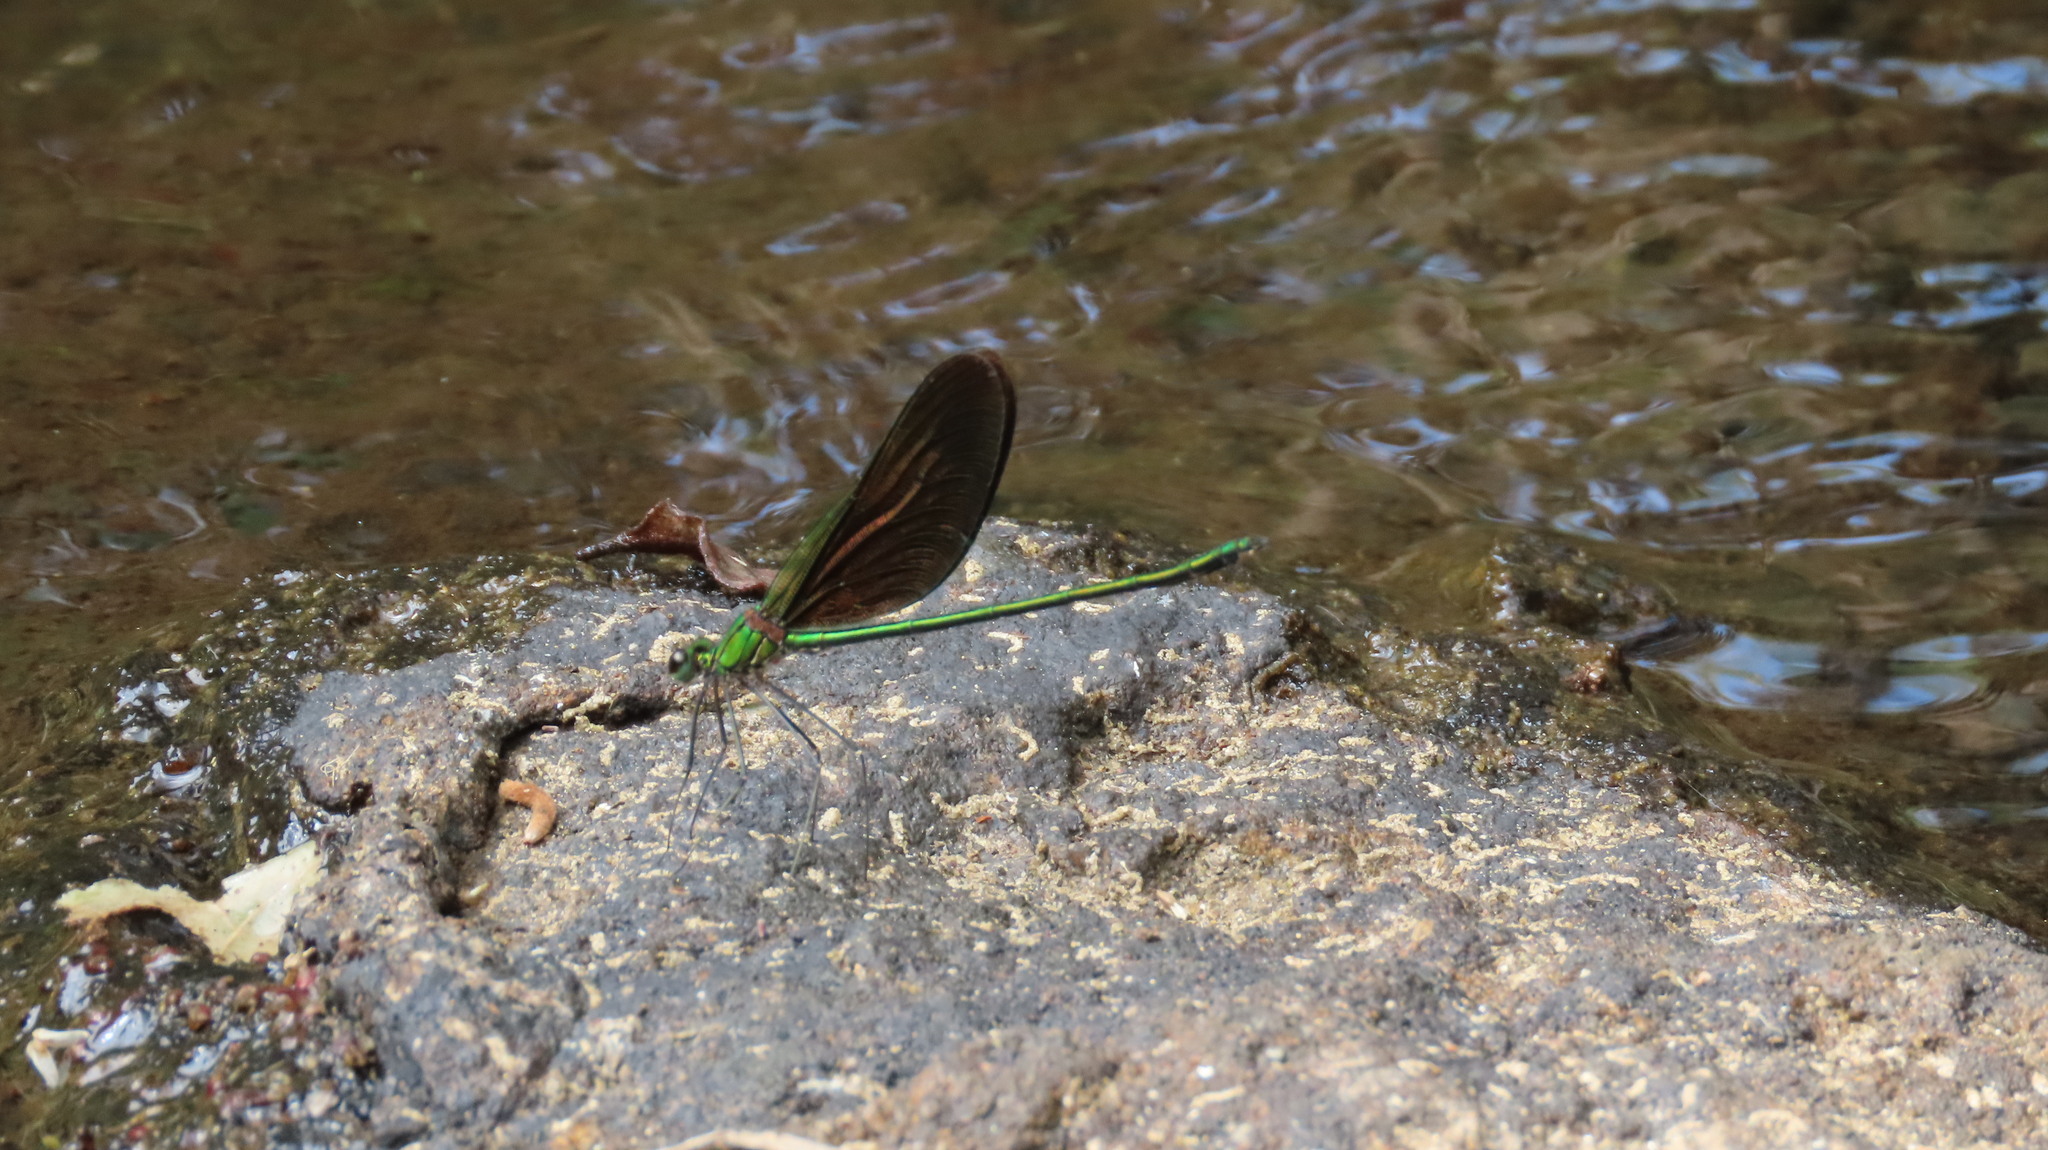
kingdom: Animalia
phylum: Arthropoda
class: Insecta
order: Odonata
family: Calopterygidae
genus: Neurobasis
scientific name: Neurobasis chinensis
